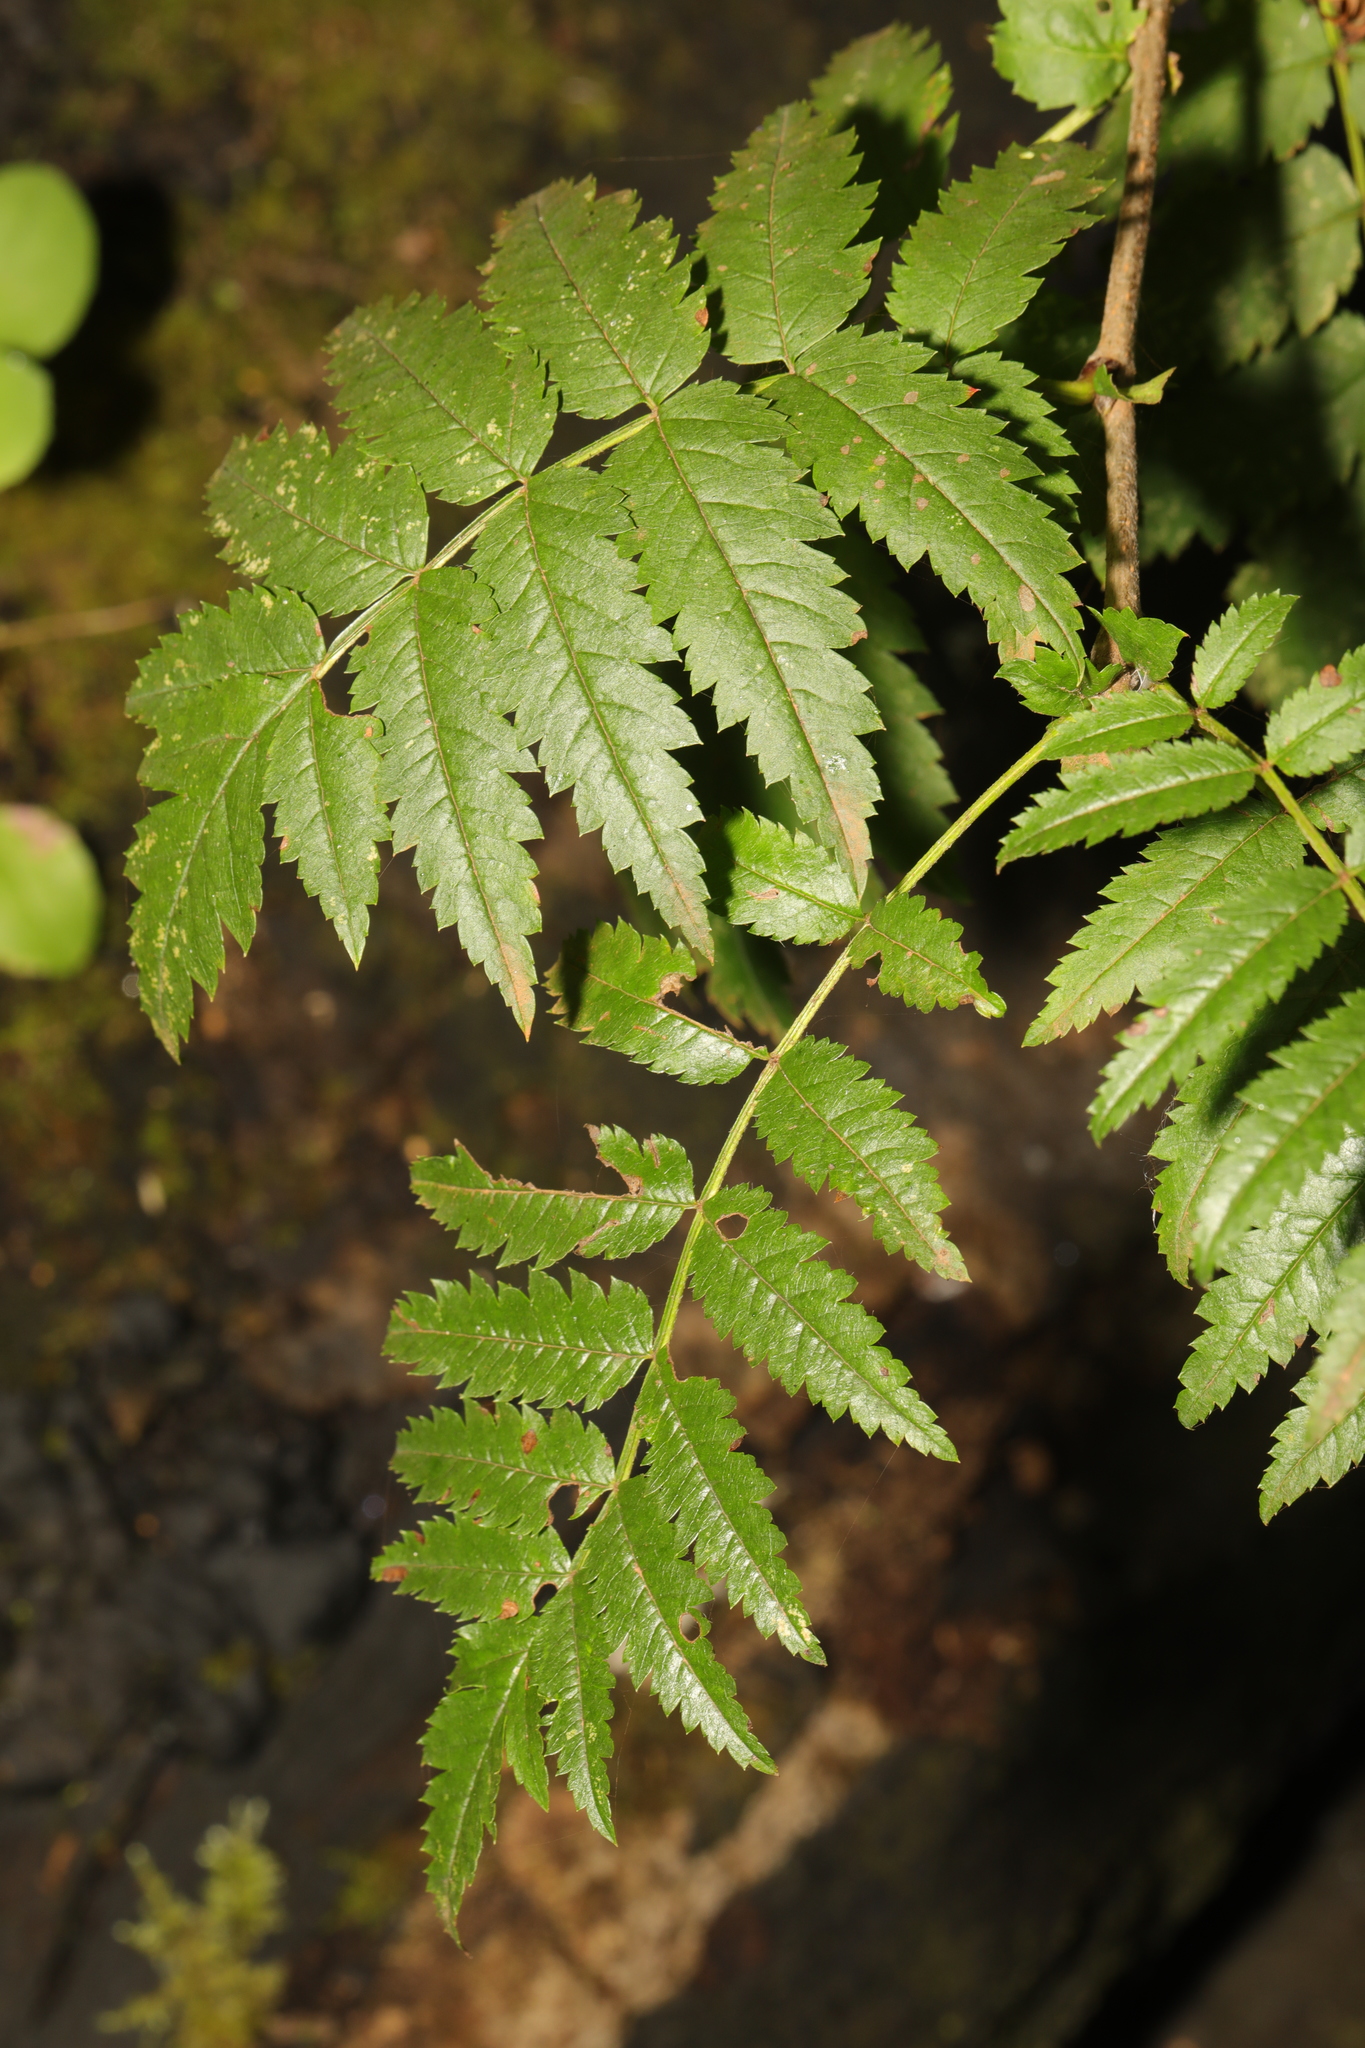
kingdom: Plantae
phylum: Tracheophyta
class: Magnoliopsida
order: Rosales
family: Rosaceae
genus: Sorbus
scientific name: Sorbus aucuparia
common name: Rowan
